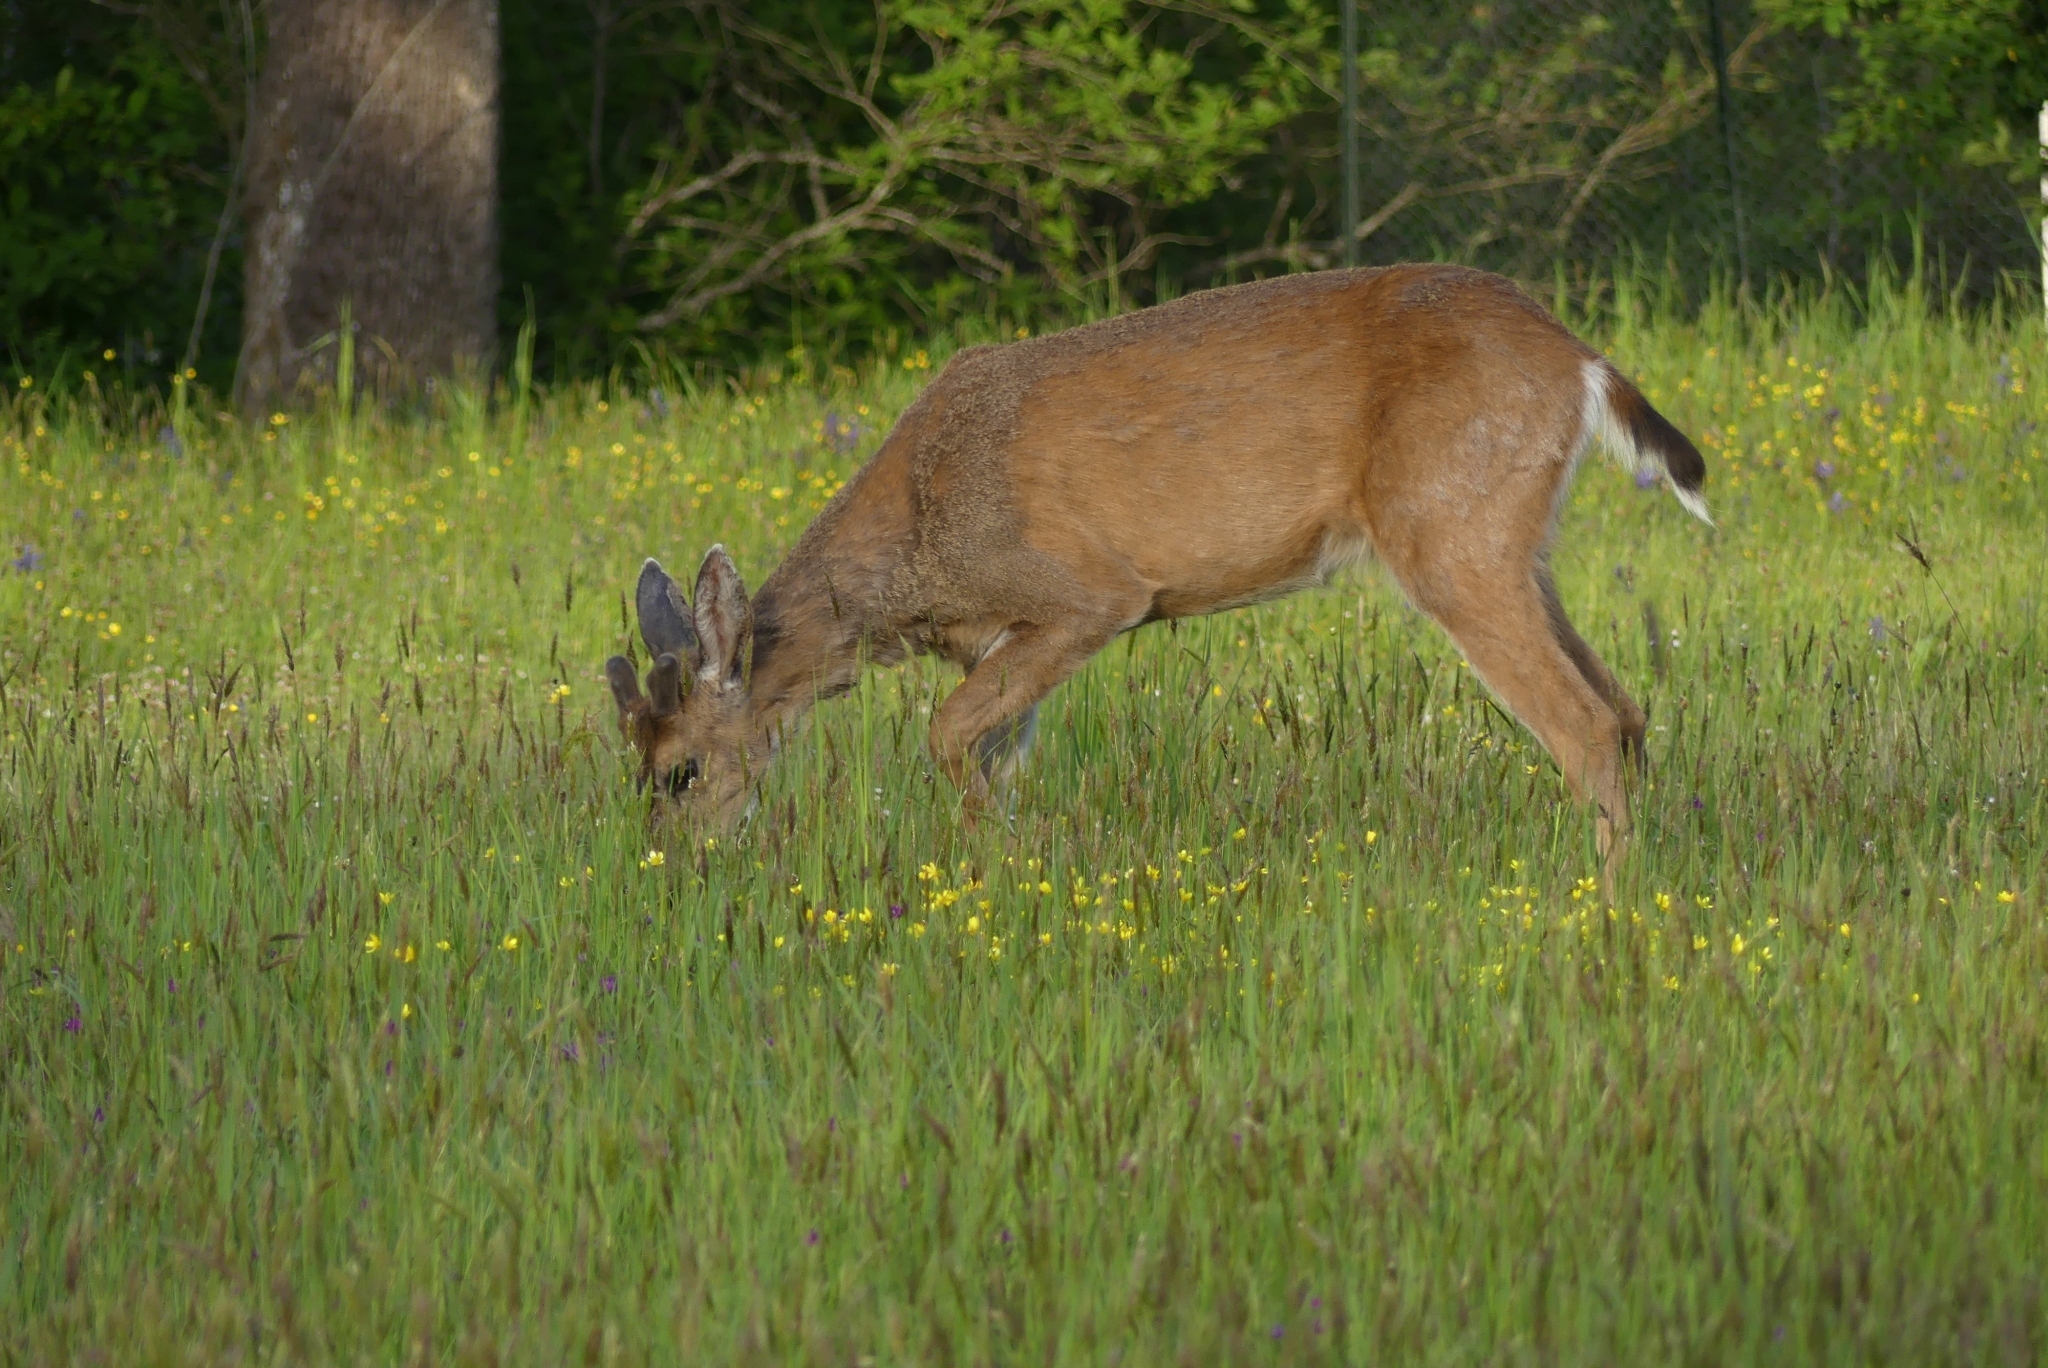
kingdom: Animalia
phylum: Chordata
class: Mammalia
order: Artiodactyla
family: Cervidae
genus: Odocoileus
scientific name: Odocoileus hemionus
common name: Mule deer
